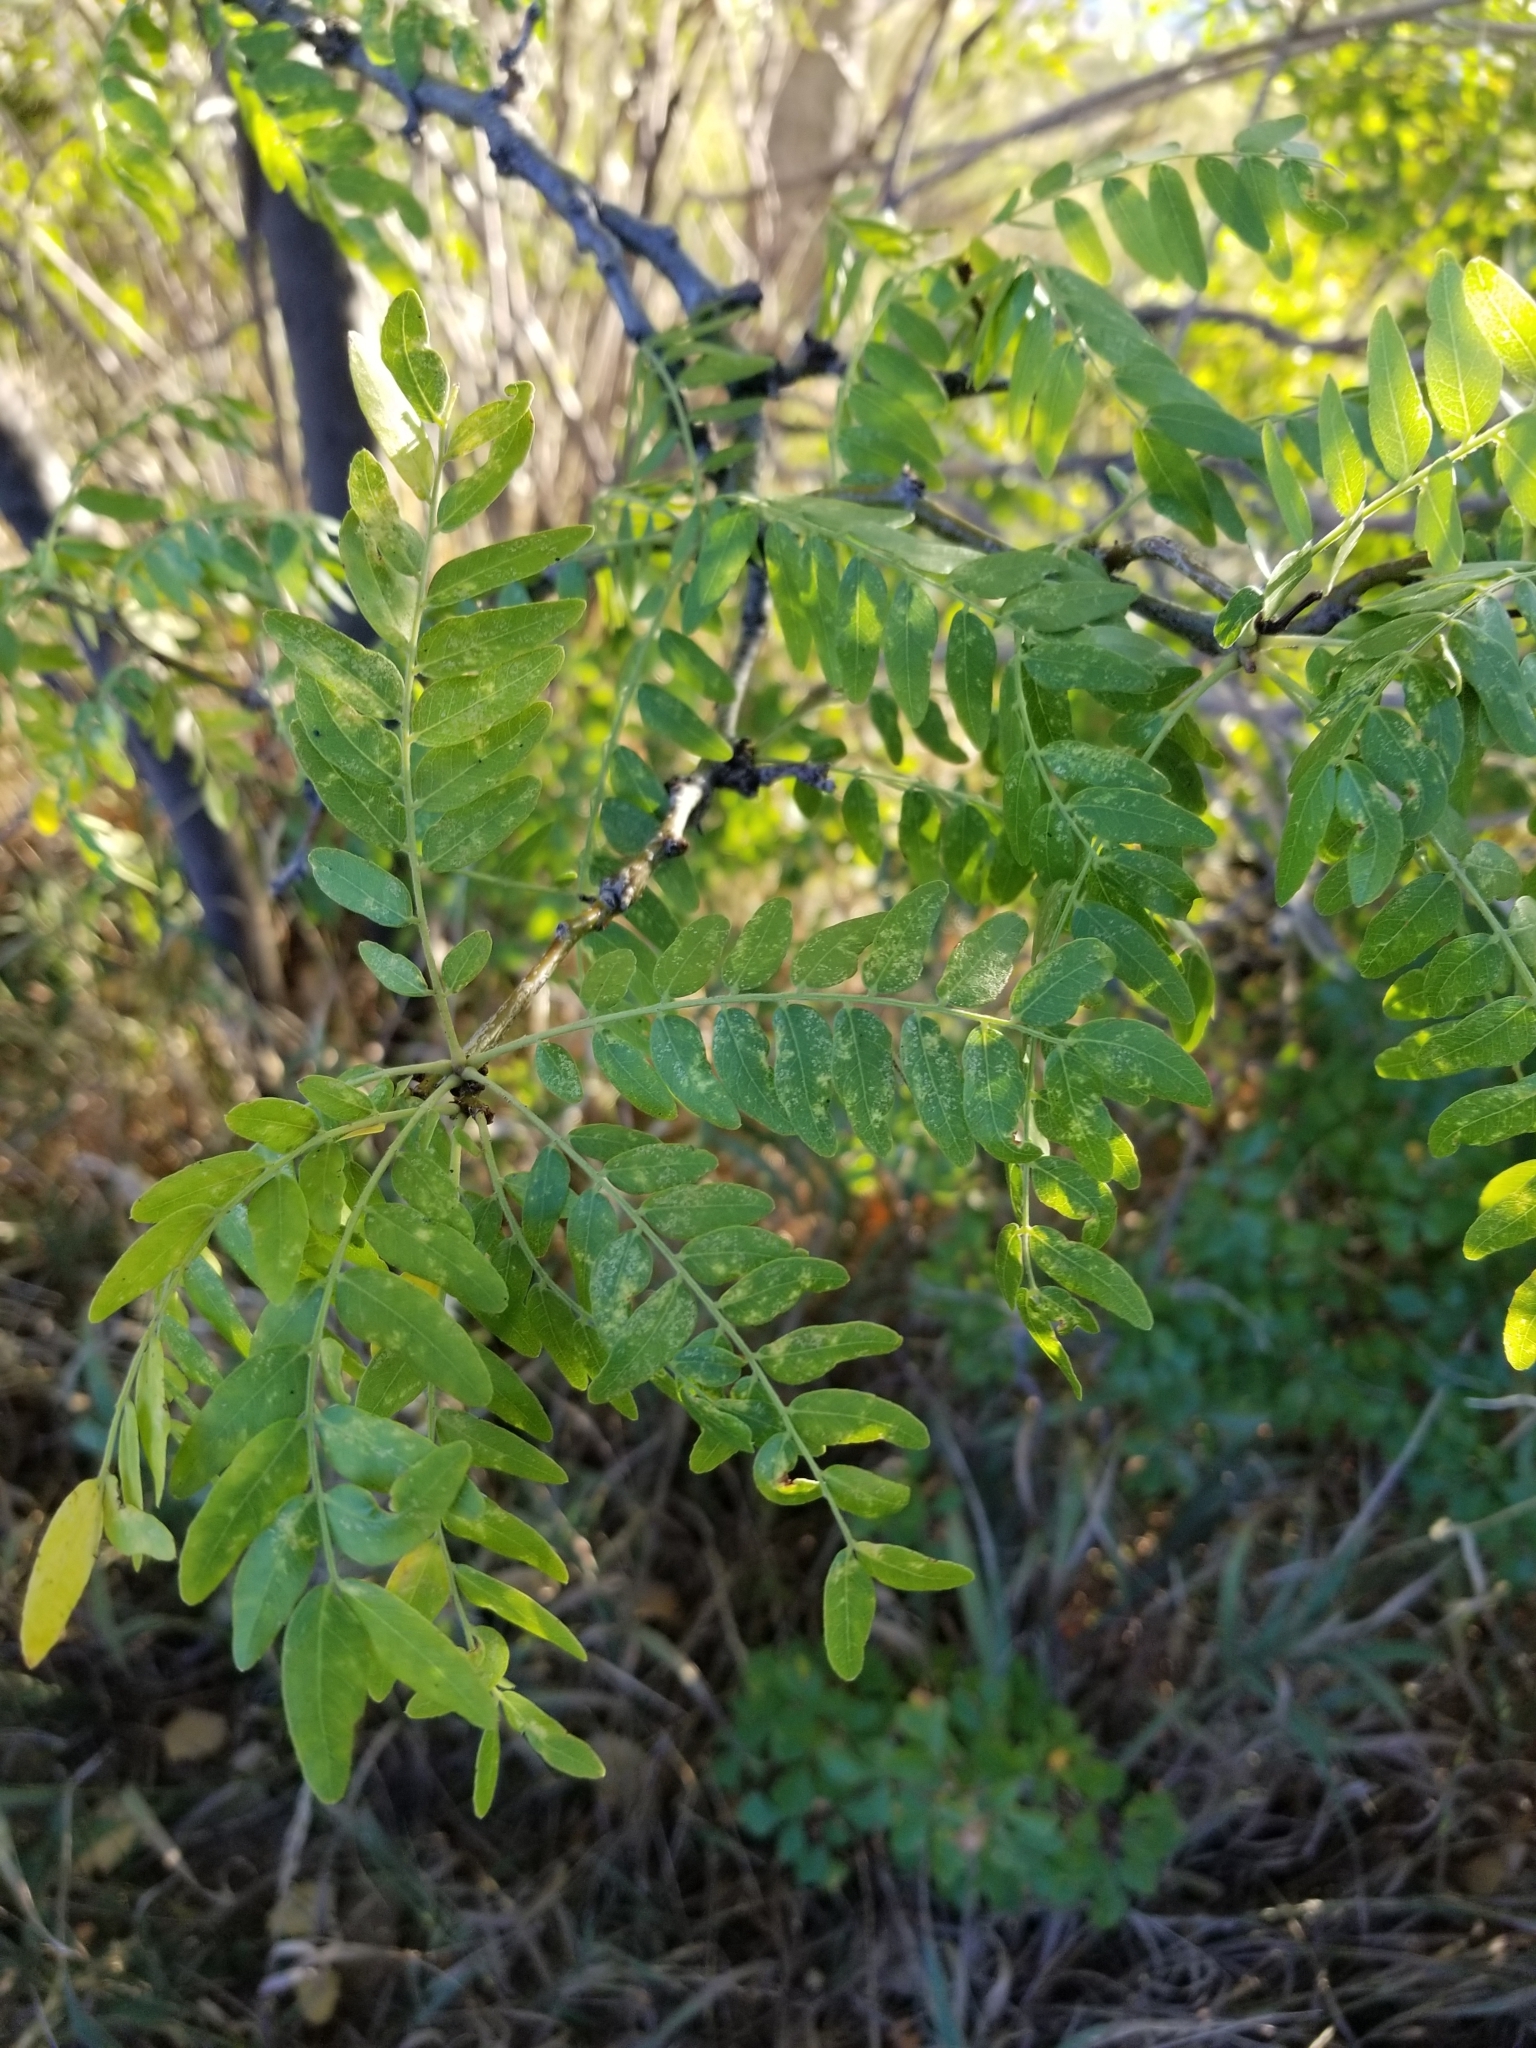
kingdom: Plantae
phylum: Tracheophyta
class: Magnoliopsida
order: Fabales
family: Fabaceae
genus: Gleditsia
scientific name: Gleditsia triacanthos
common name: Common honeylocust
